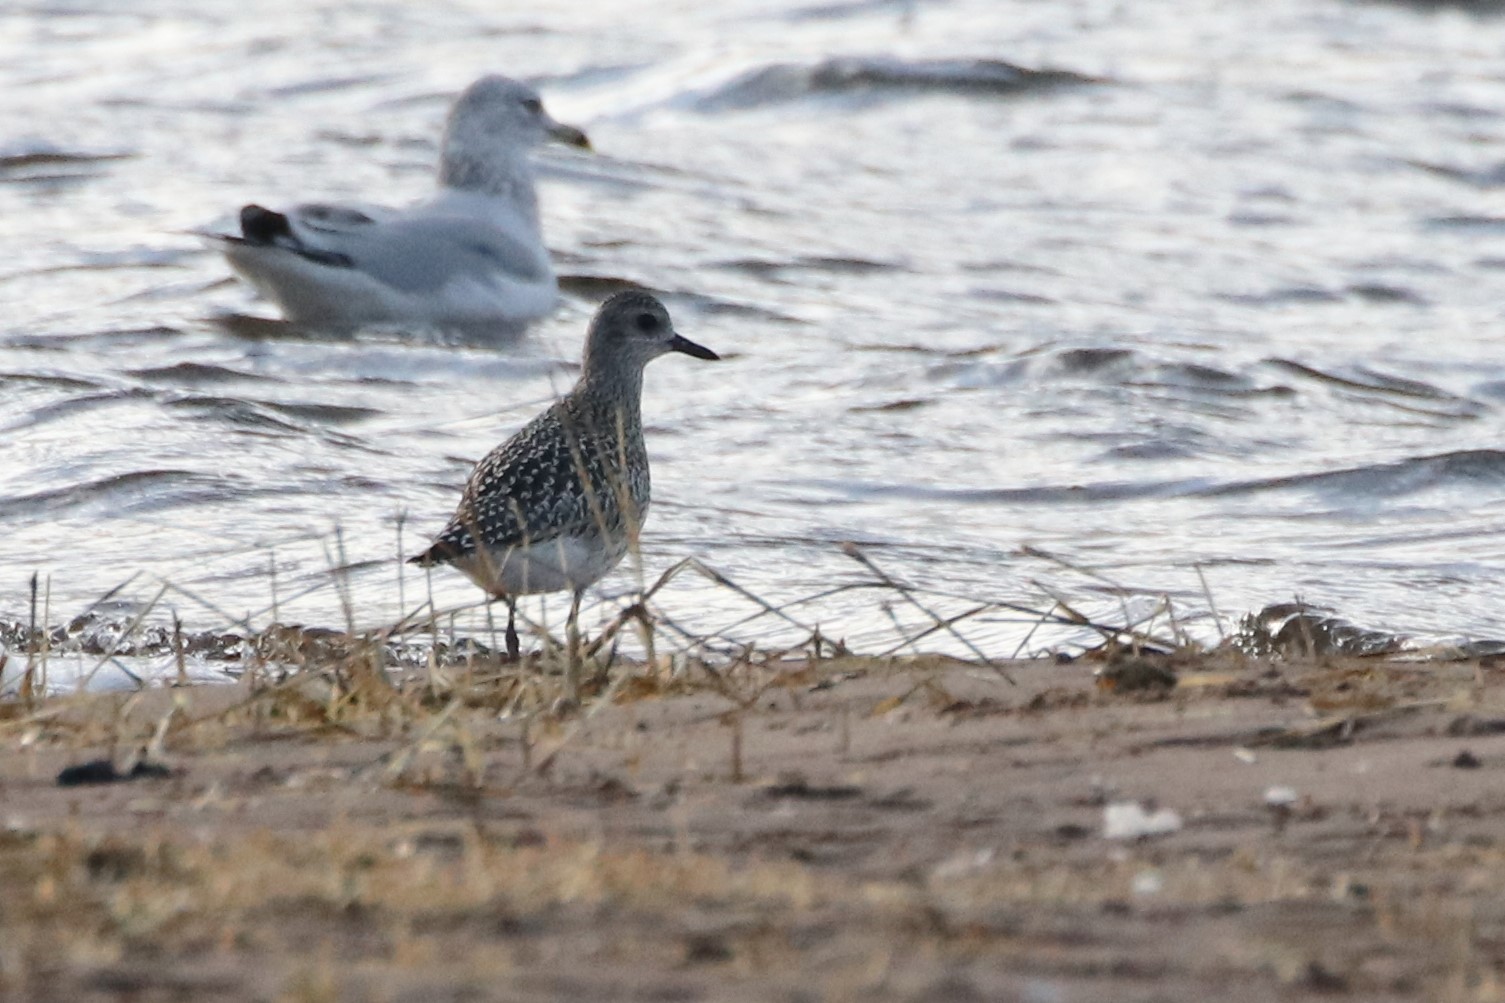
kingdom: Animalia
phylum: Chordata
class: Aves
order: Charadriiformes
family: Charadriidae
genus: Pluvialis
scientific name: Pluvialis squatarola
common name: Grey plover
